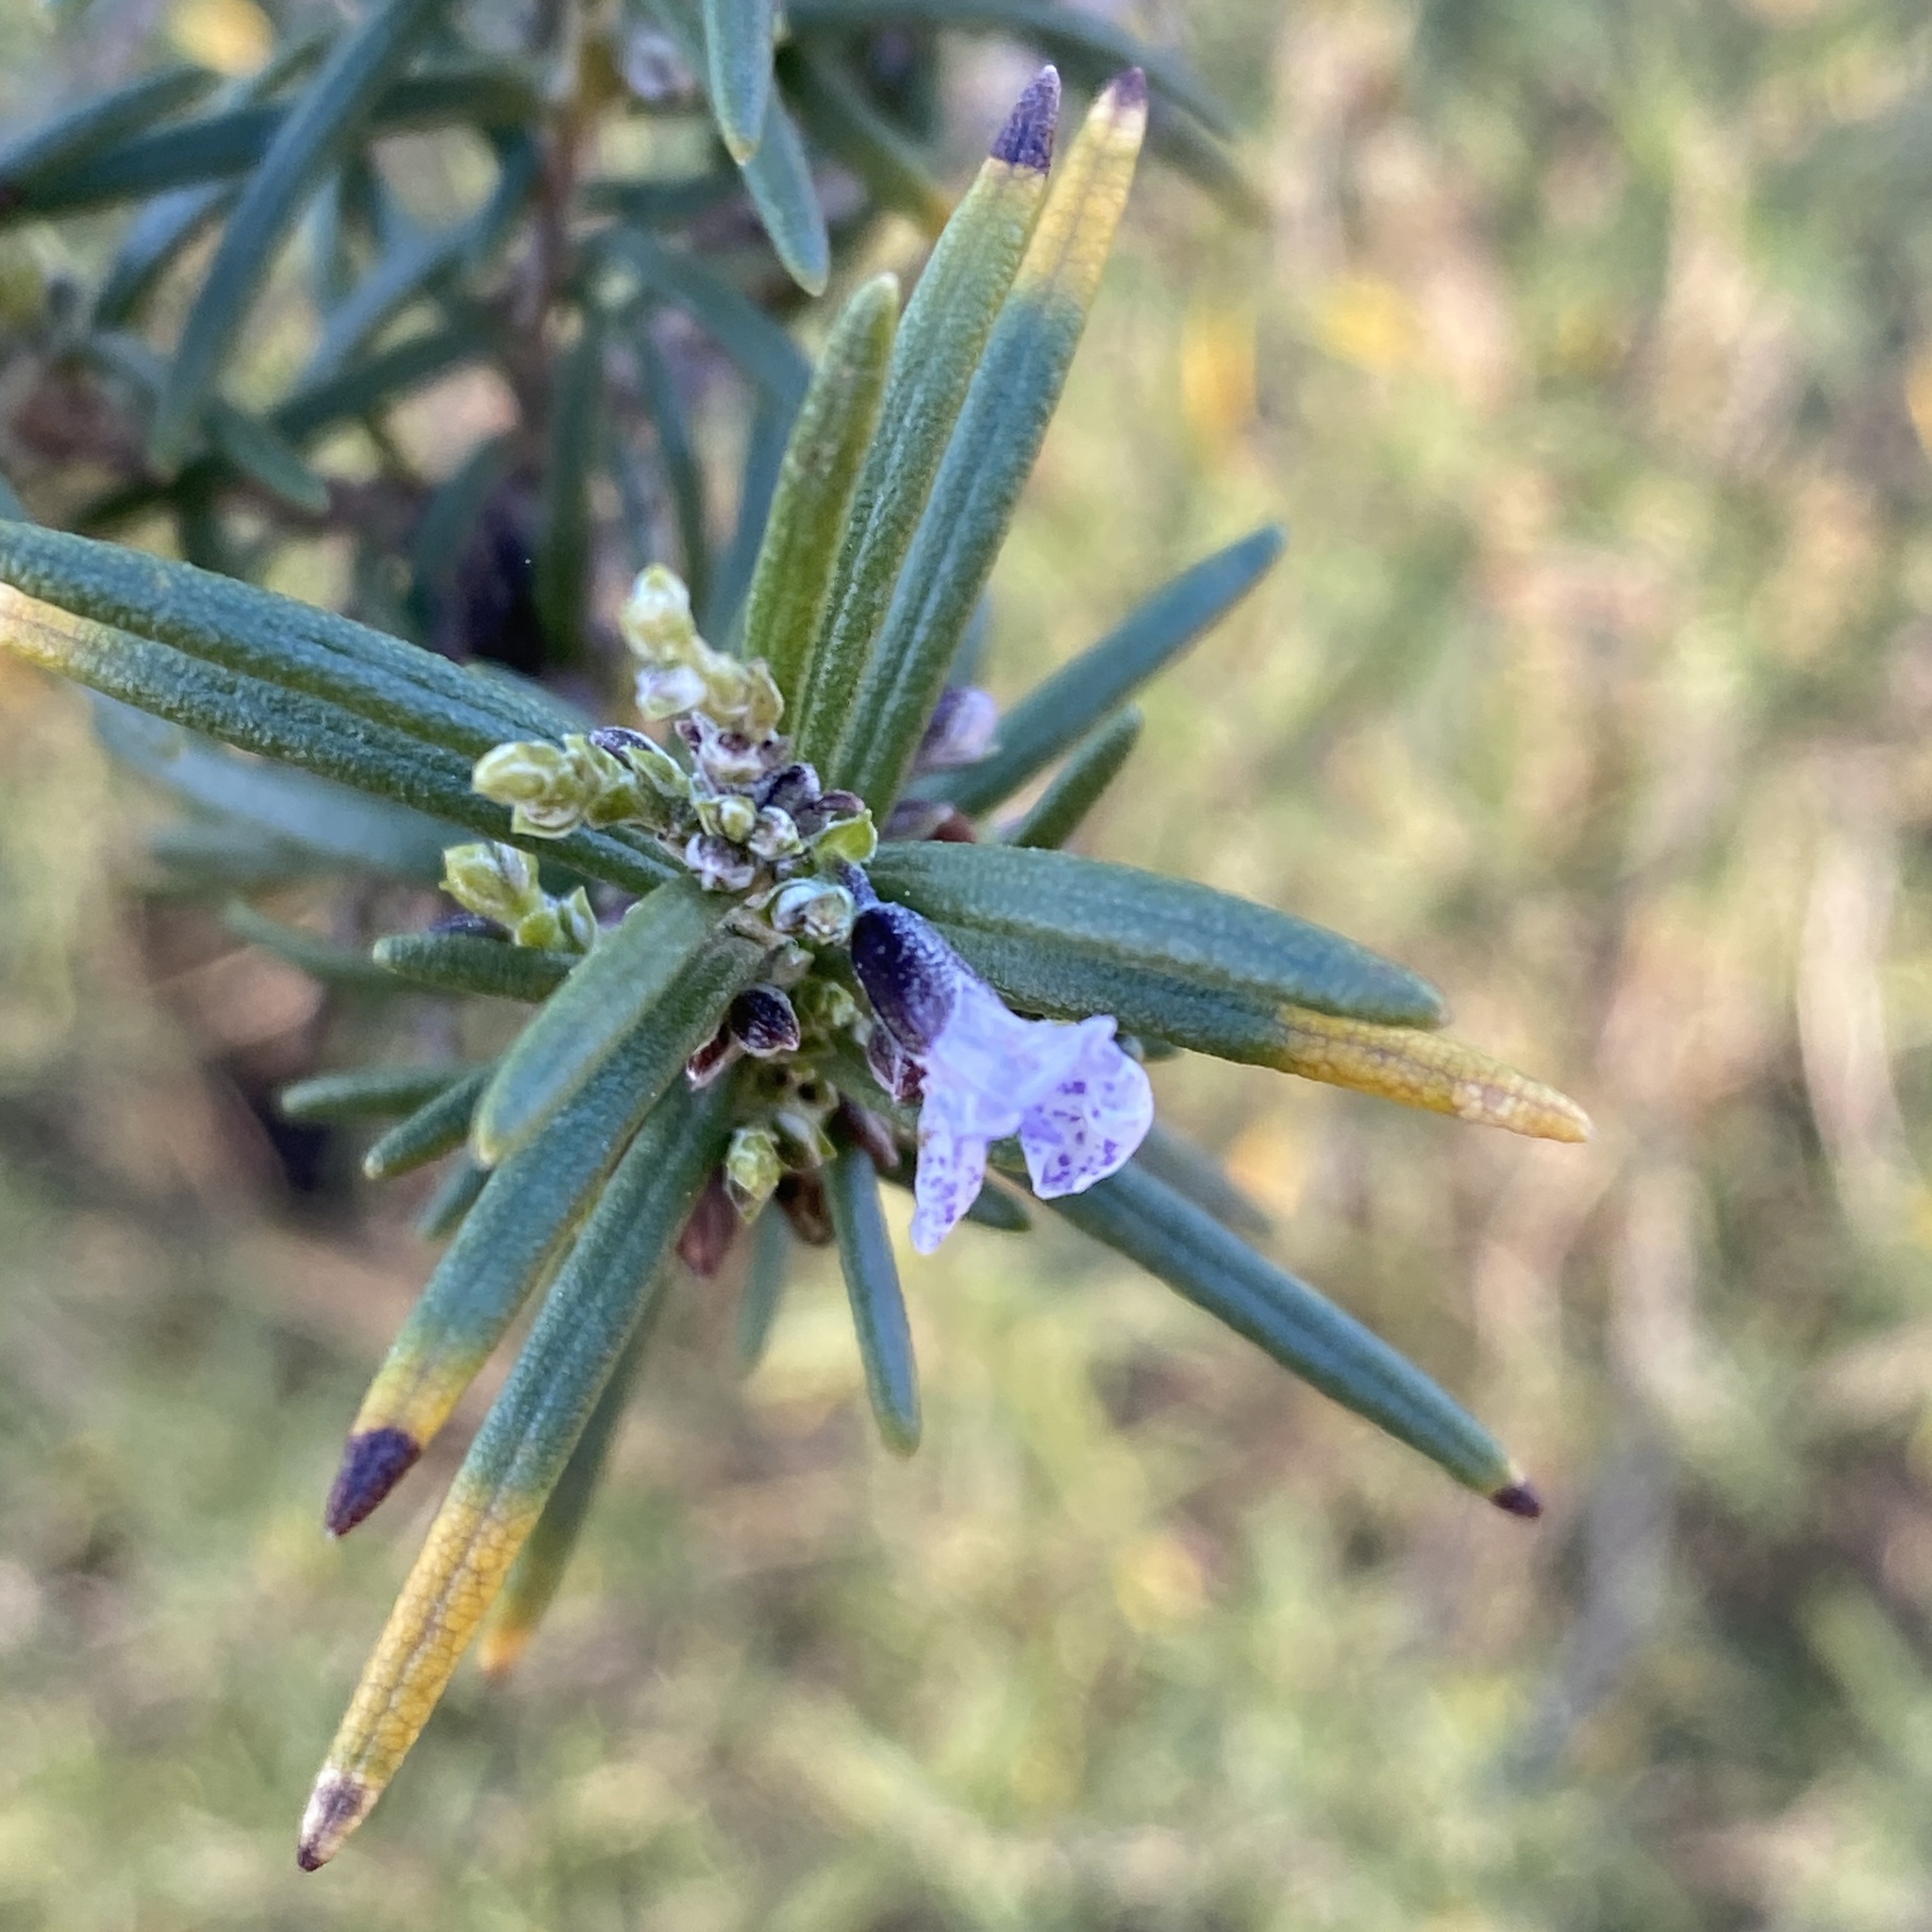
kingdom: Plantae
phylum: Tracheophyta
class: Magnoliopsida
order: Lamiales
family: Lamiaceae
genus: Salvia
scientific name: Salvia rosmarinus
